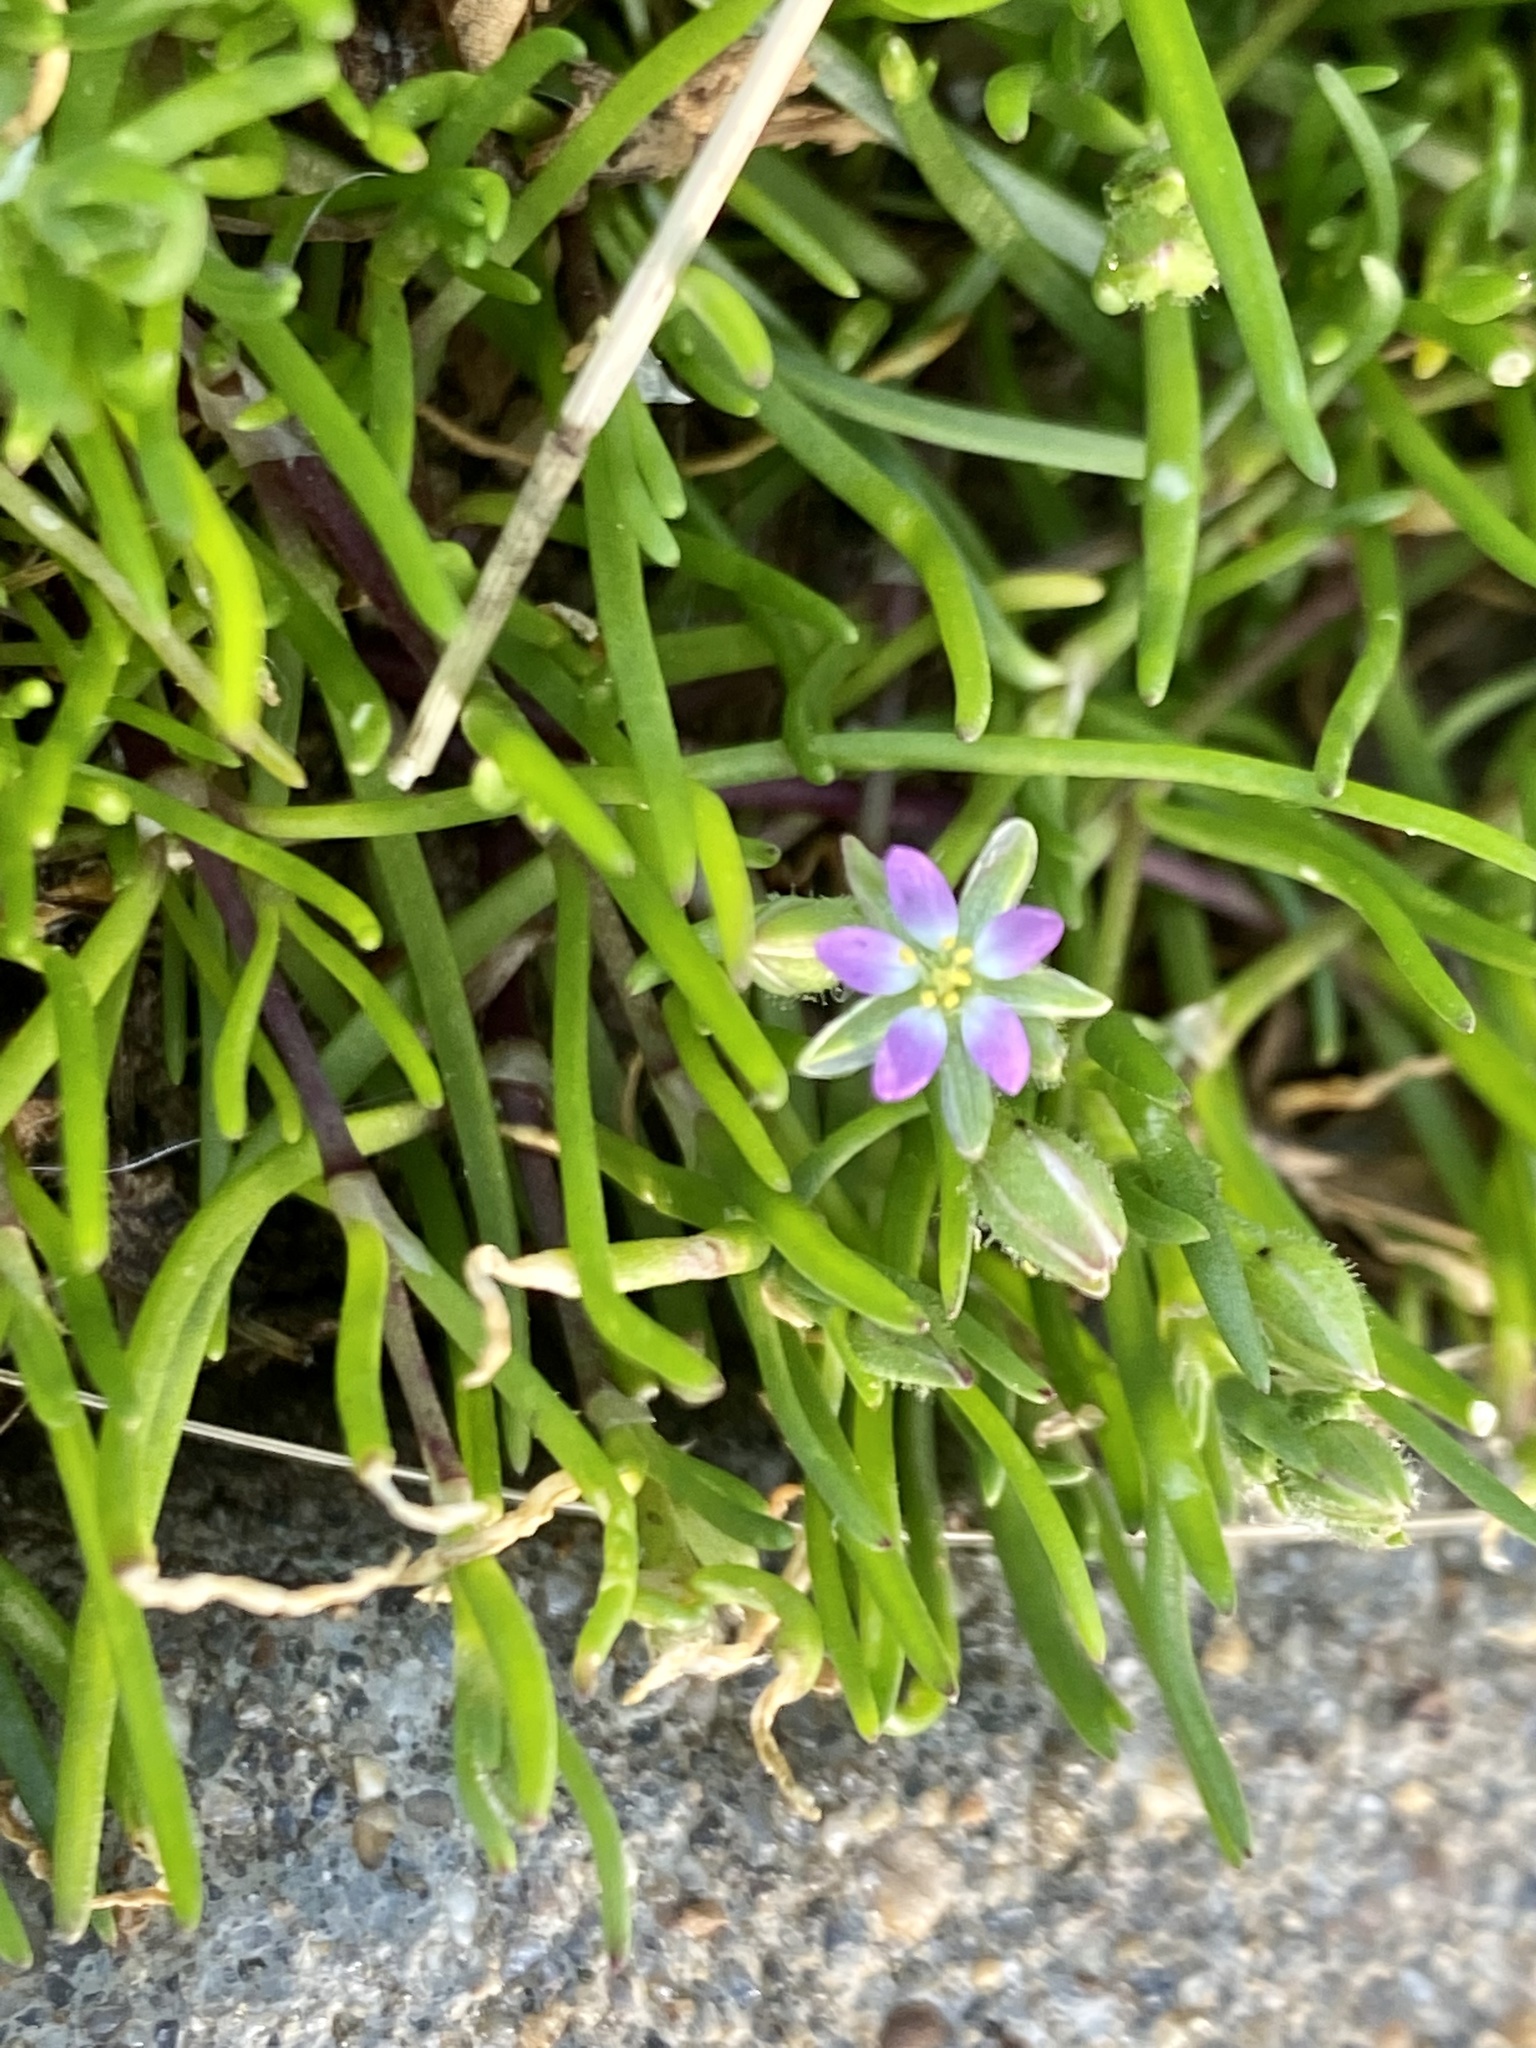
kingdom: Plantae
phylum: Tracheophyta
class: Magnoliopsida
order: Caryophyllales
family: Caryophyllaceae
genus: Spergularia
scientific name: Spergularia marina
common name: Lesser sea-spurrey
